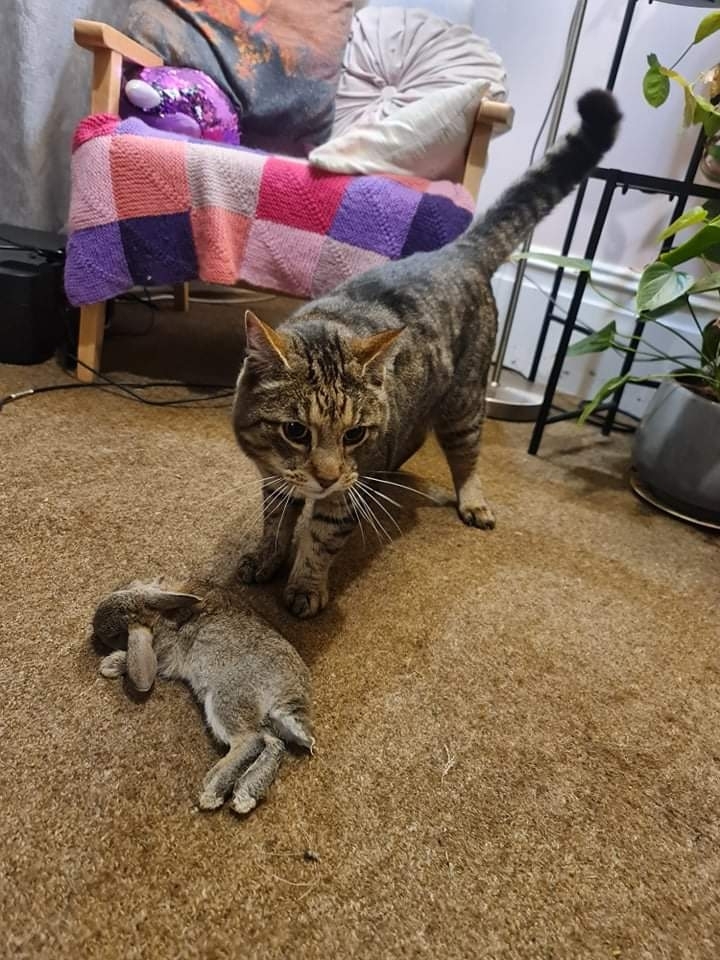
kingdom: Animalia
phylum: Chordata
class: Mammalia
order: Lagomorpha
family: Leporidae
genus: Oryctolagus
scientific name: Oryctolagus cuniculus
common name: European rabbit
